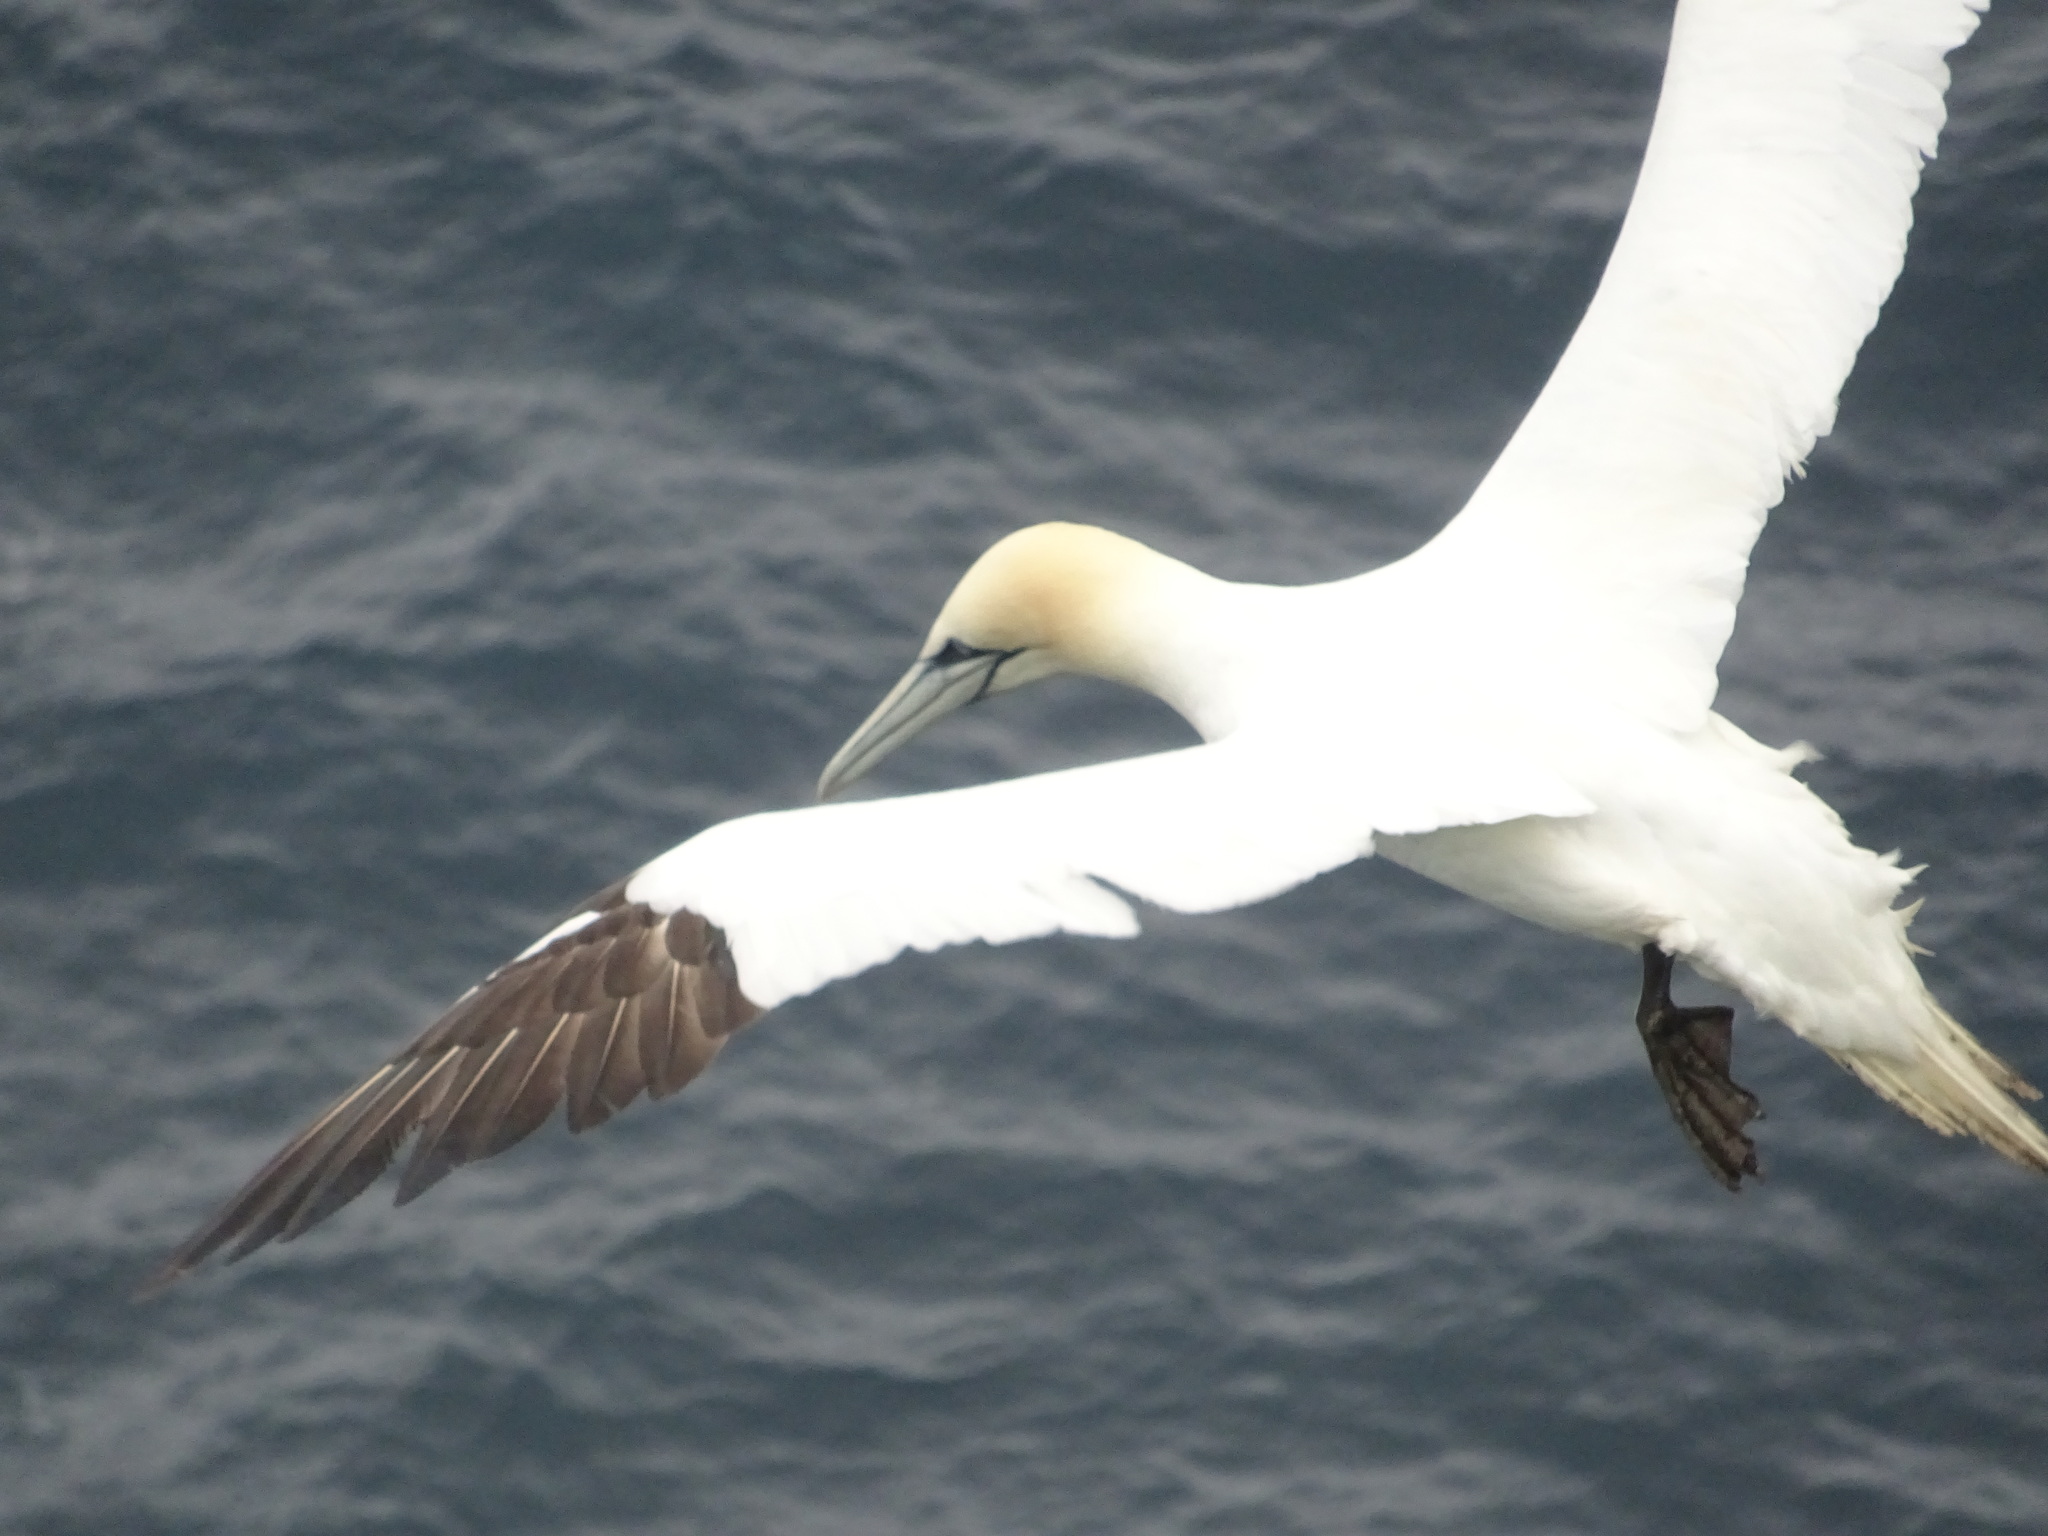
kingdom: Animalia
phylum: Chordata
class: Aves
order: Suliformes
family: Sulidae
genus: Morus
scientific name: Morus bassanus
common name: Northern gannet
